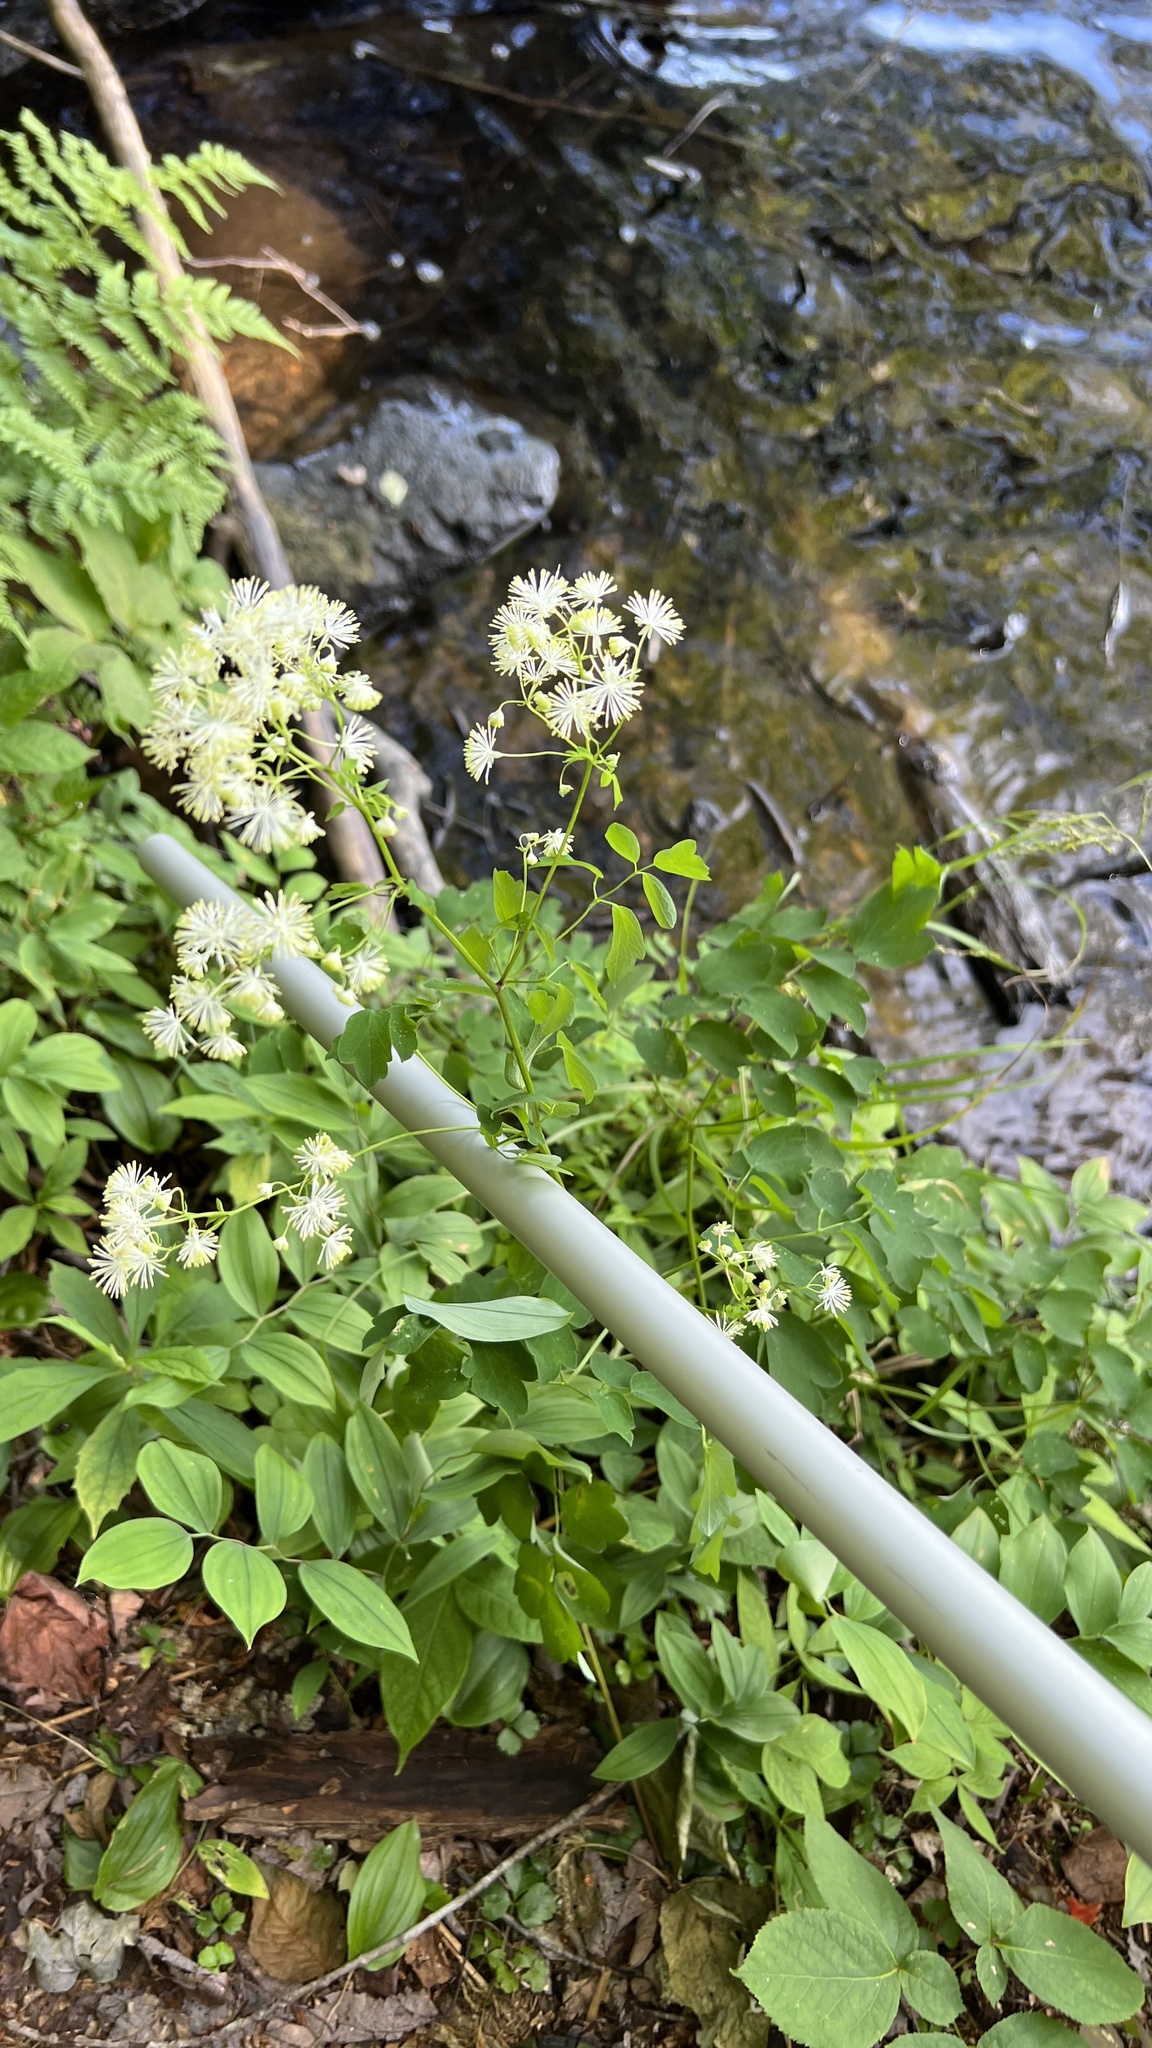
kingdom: Plantae
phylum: Tracheophyta
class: Magnoliopsida
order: Ranunculales
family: Ranunculaceae
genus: Thalictrum
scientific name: Thalictrum pubescens
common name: King-of-the-meadow
